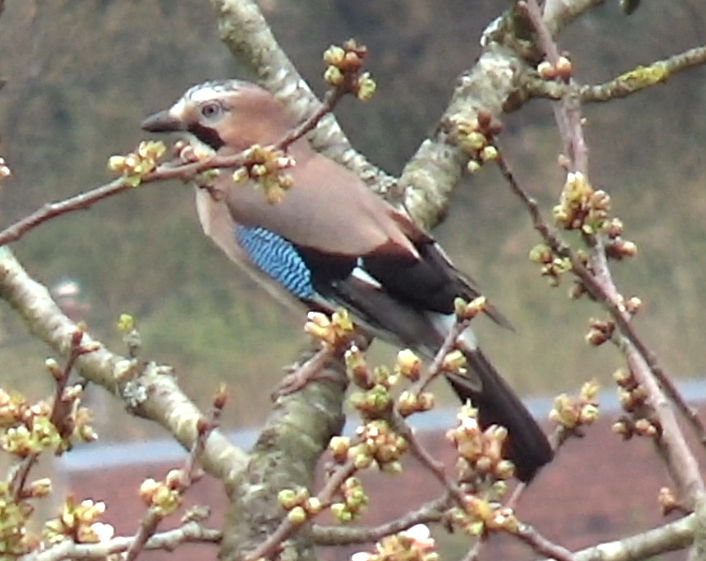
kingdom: Animalia
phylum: Chordata
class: Aves
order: Passeriformes
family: Corvidae
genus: Garrulus
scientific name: Garrulus glandarius
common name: Eurasian jay
